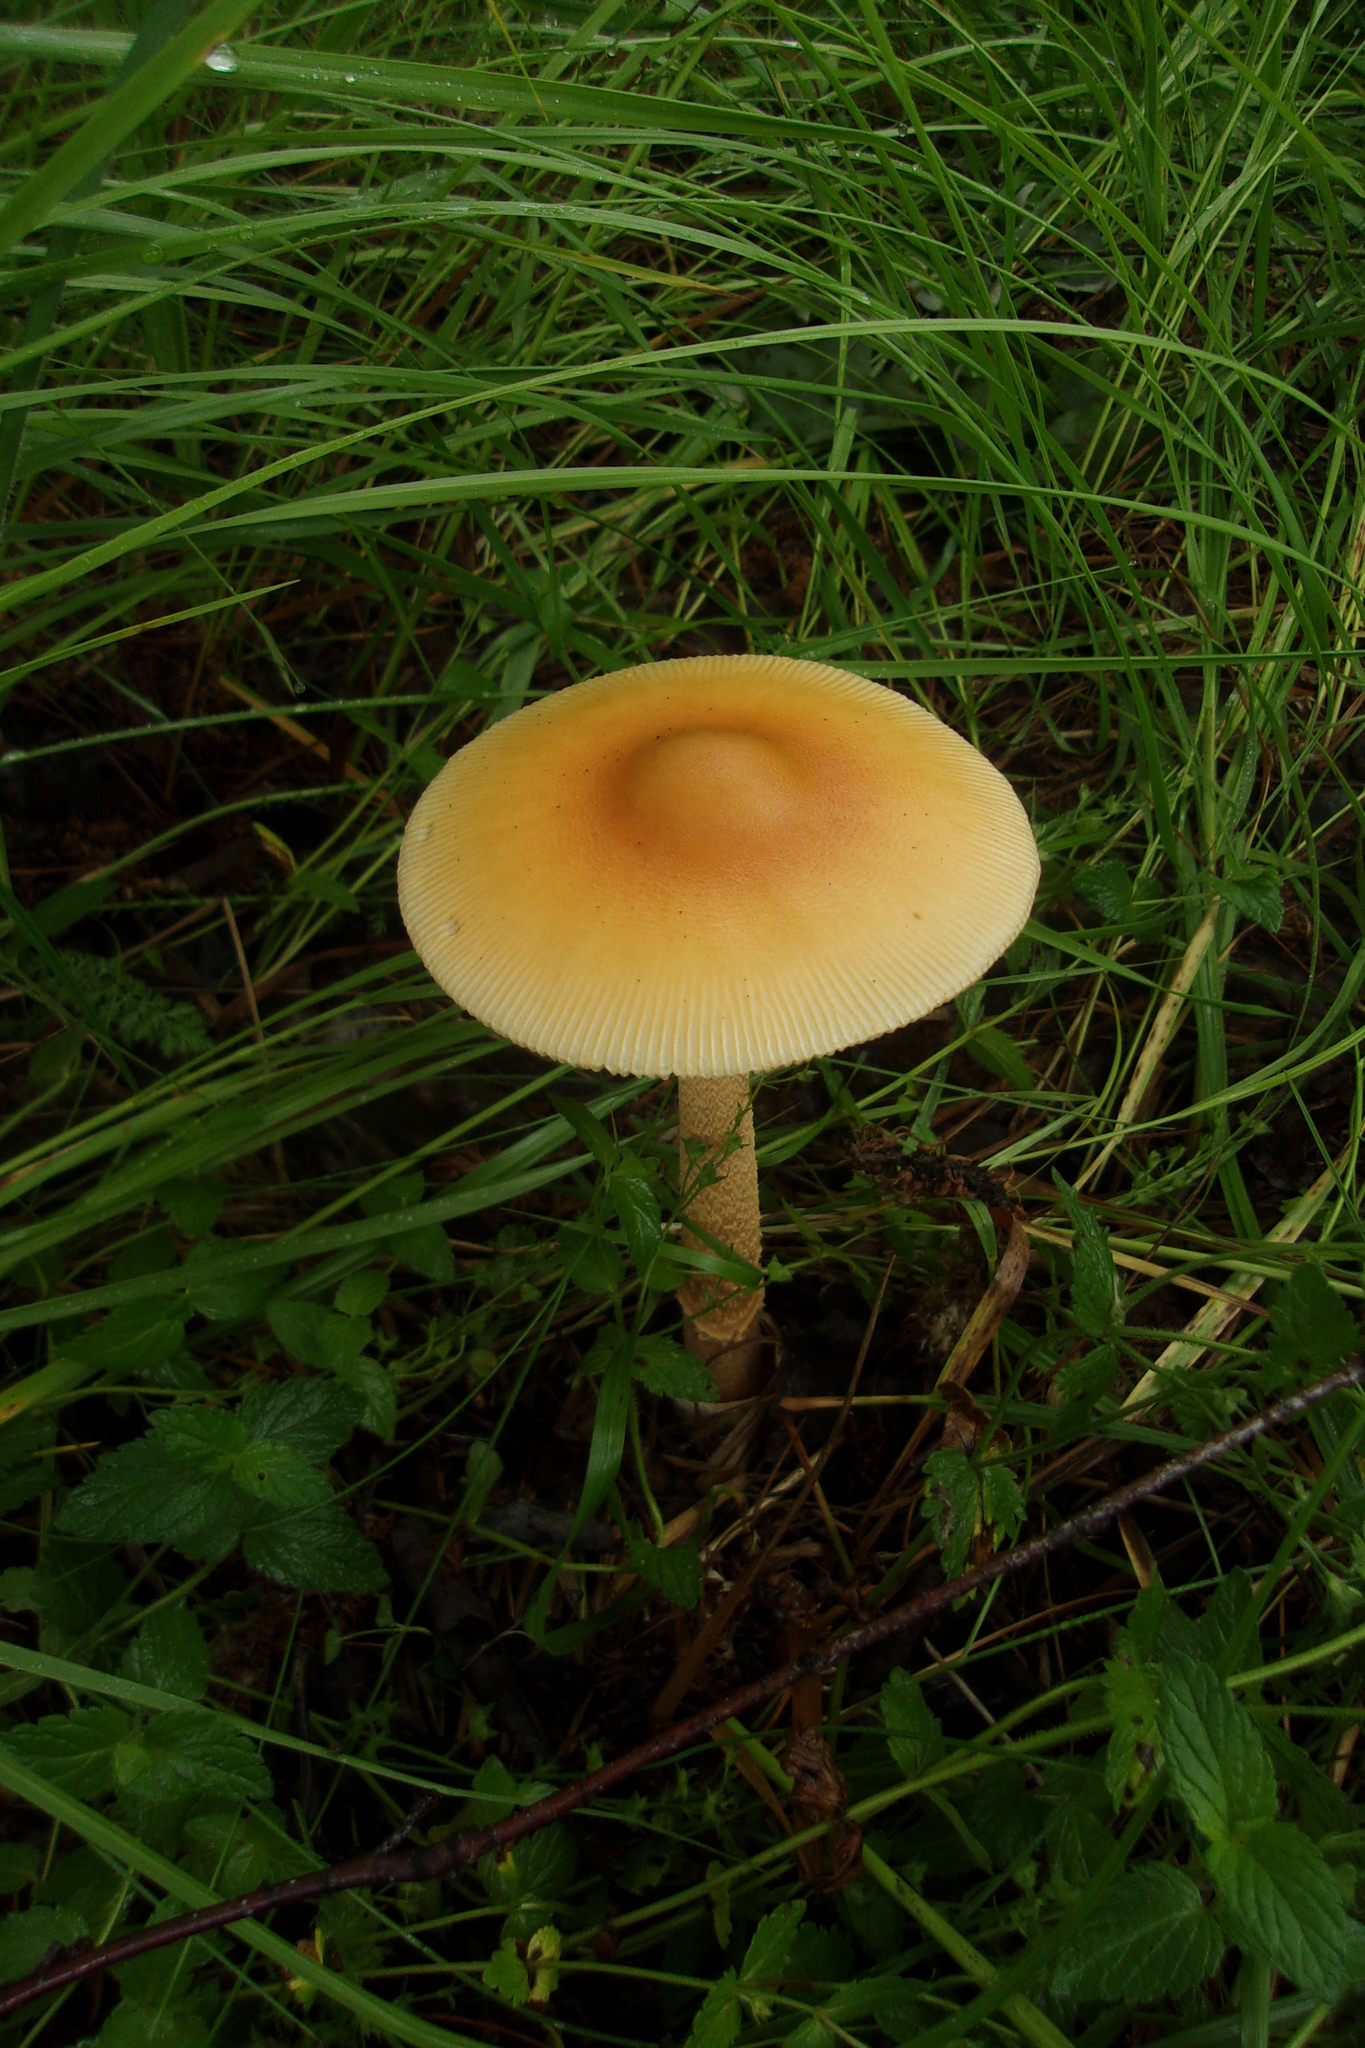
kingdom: Fungi
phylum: Basidiomycota
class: Agaricomycetes
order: Agaricales
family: Amanitaceae
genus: Amanita
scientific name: Amanita crocea
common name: Orange grisette
